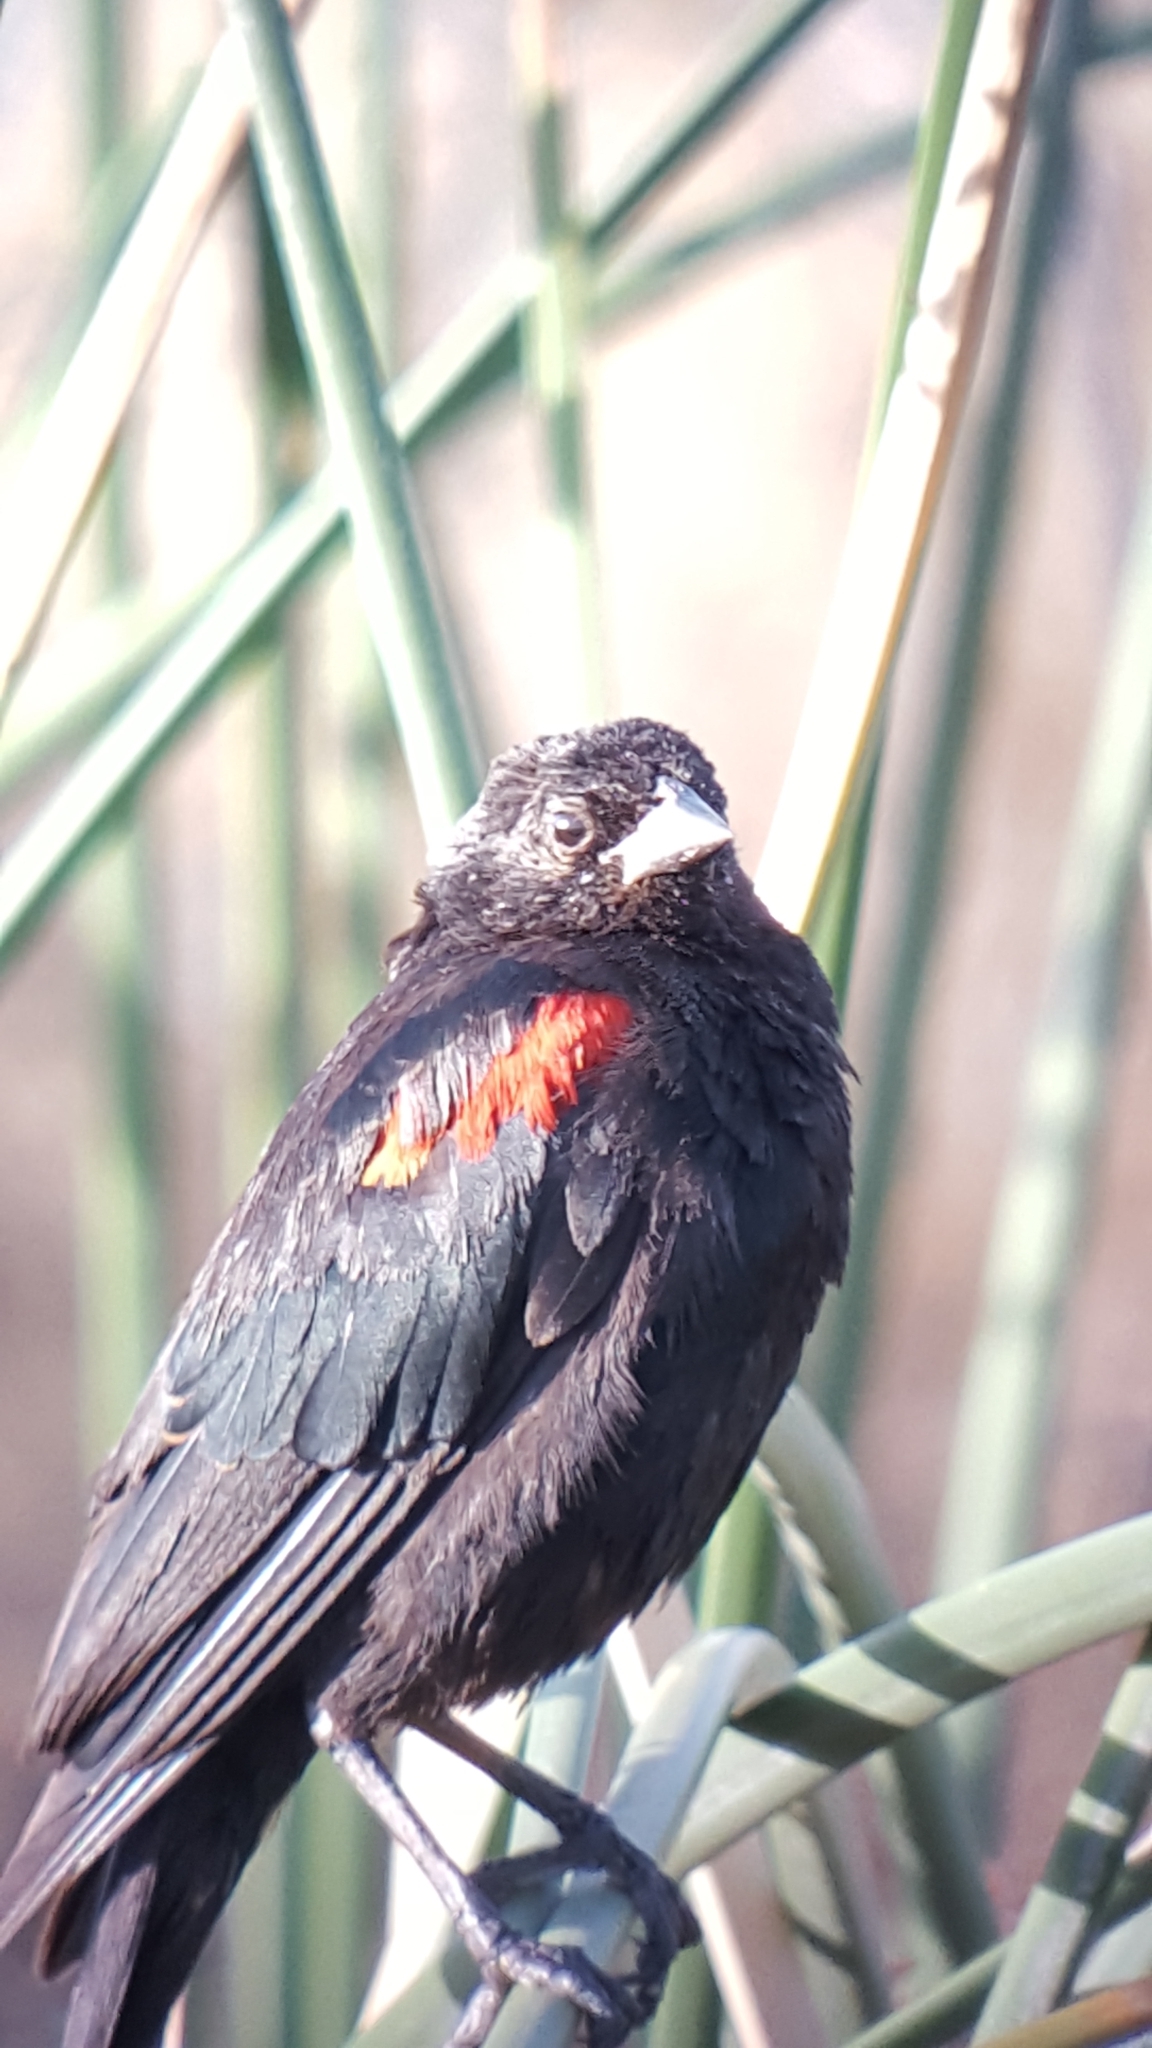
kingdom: Animalia
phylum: Chordata
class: Aves
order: Passeriformes
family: Icteridae
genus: Agelaius
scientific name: Agelaius phoeniceus
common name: Red-winged blackbird
